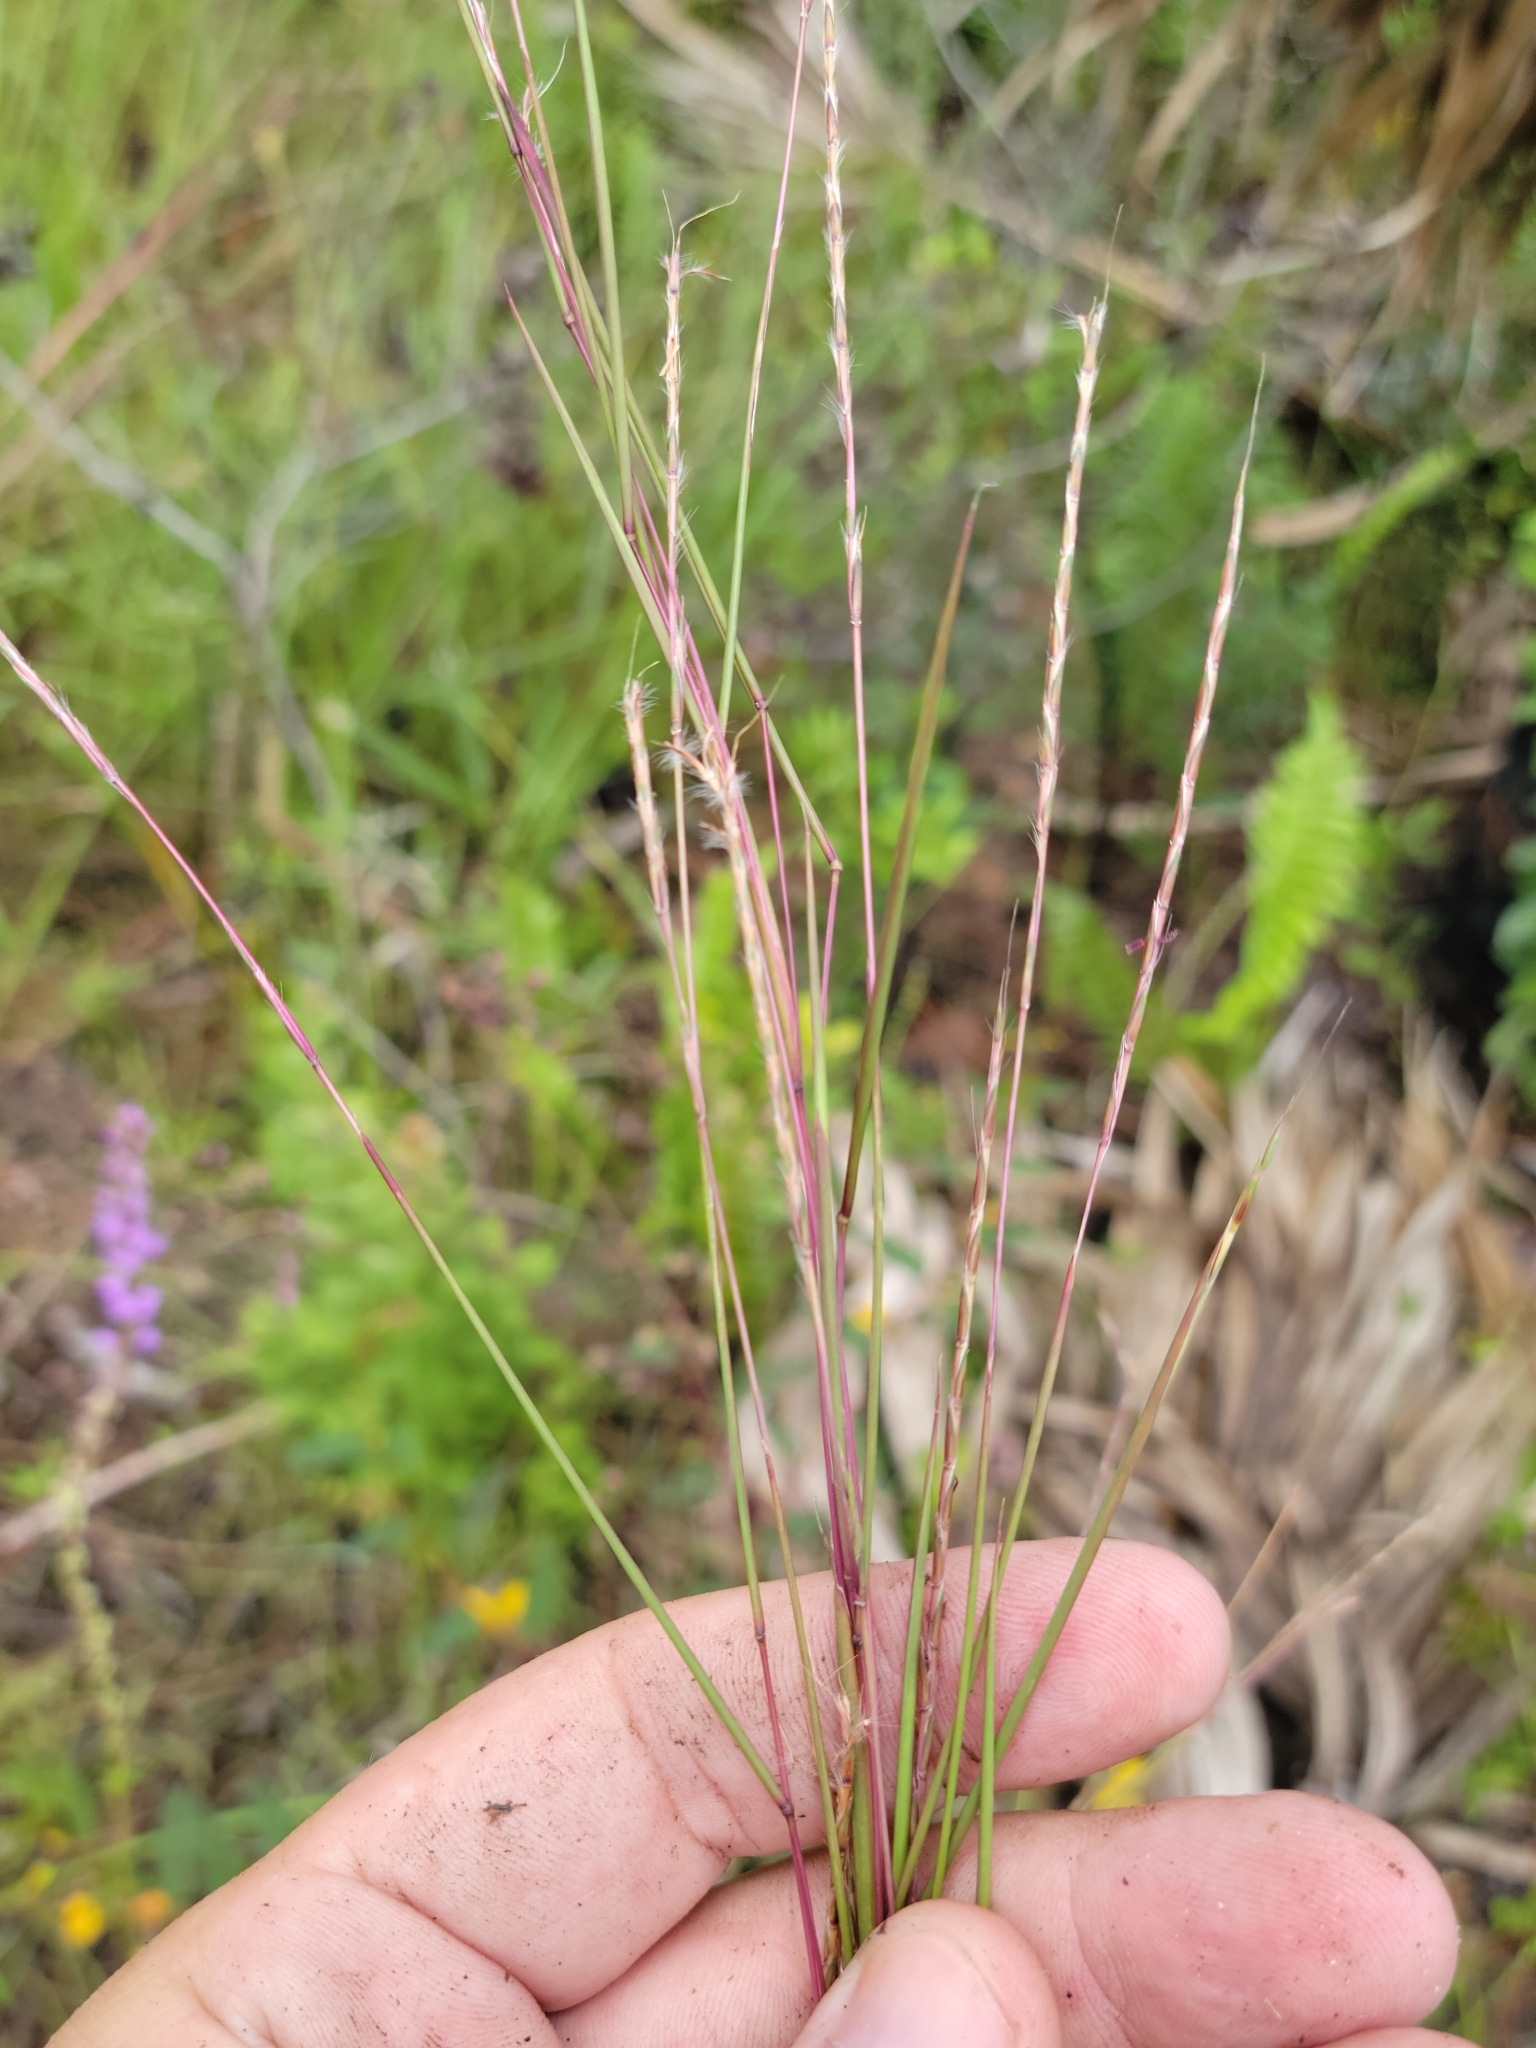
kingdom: Plantae
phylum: Tracheophyta
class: Liliopsida
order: Poales
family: Poaceae
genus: Andropogon
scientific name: Andropogon stolonifer
